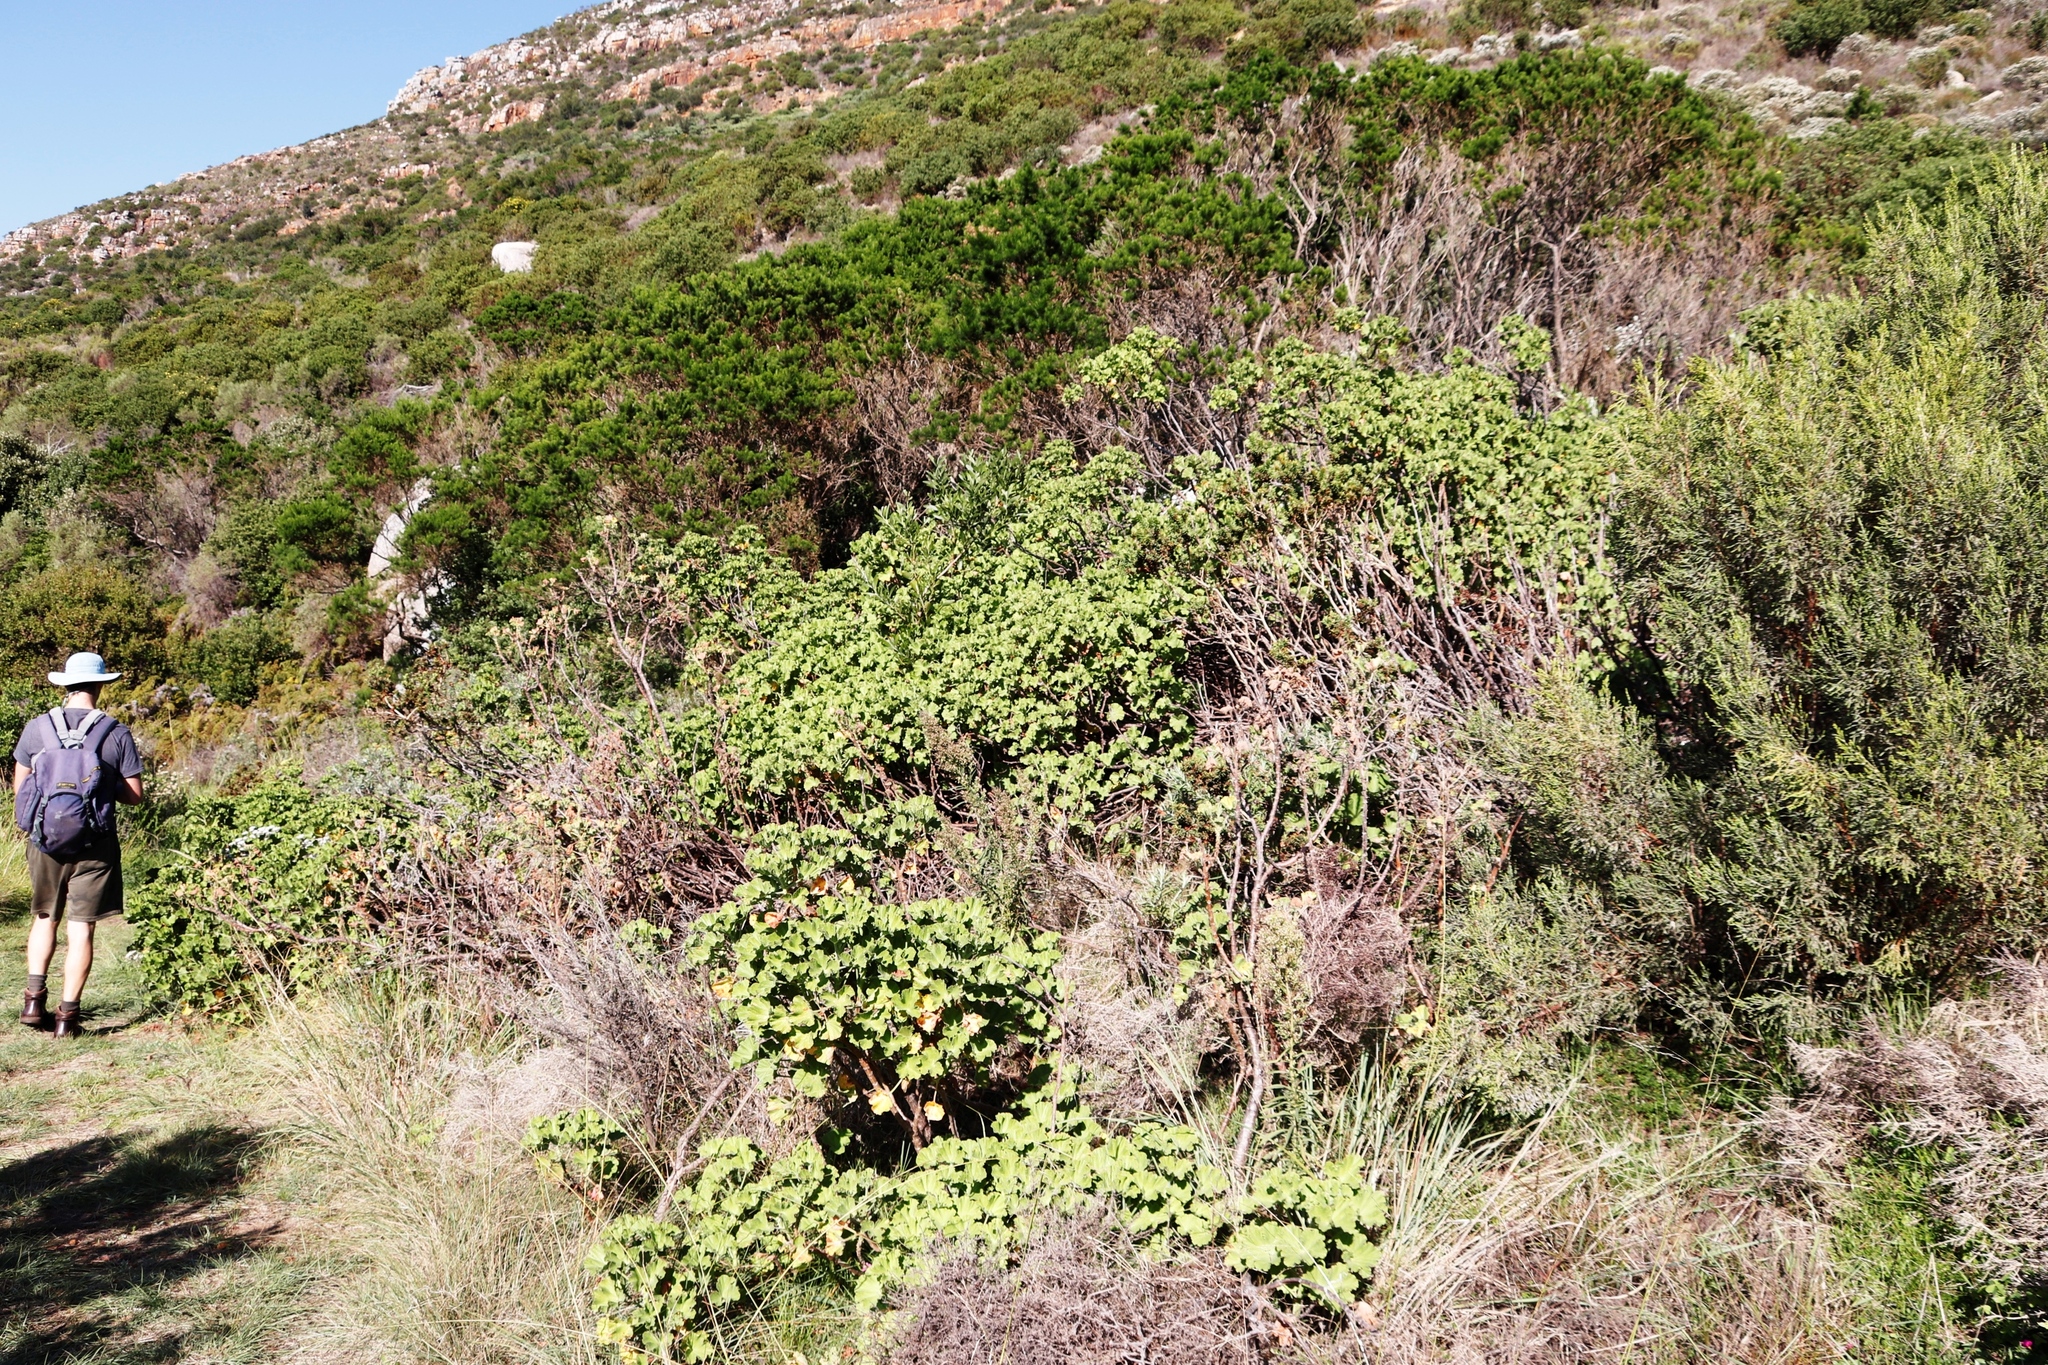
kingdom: Plantae
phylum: Tracheophyta
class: Magnoliopsida
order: Fabales
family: Fabaceae
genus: Psoralea
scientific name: Psoralea pinnata
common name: African scurfpea
